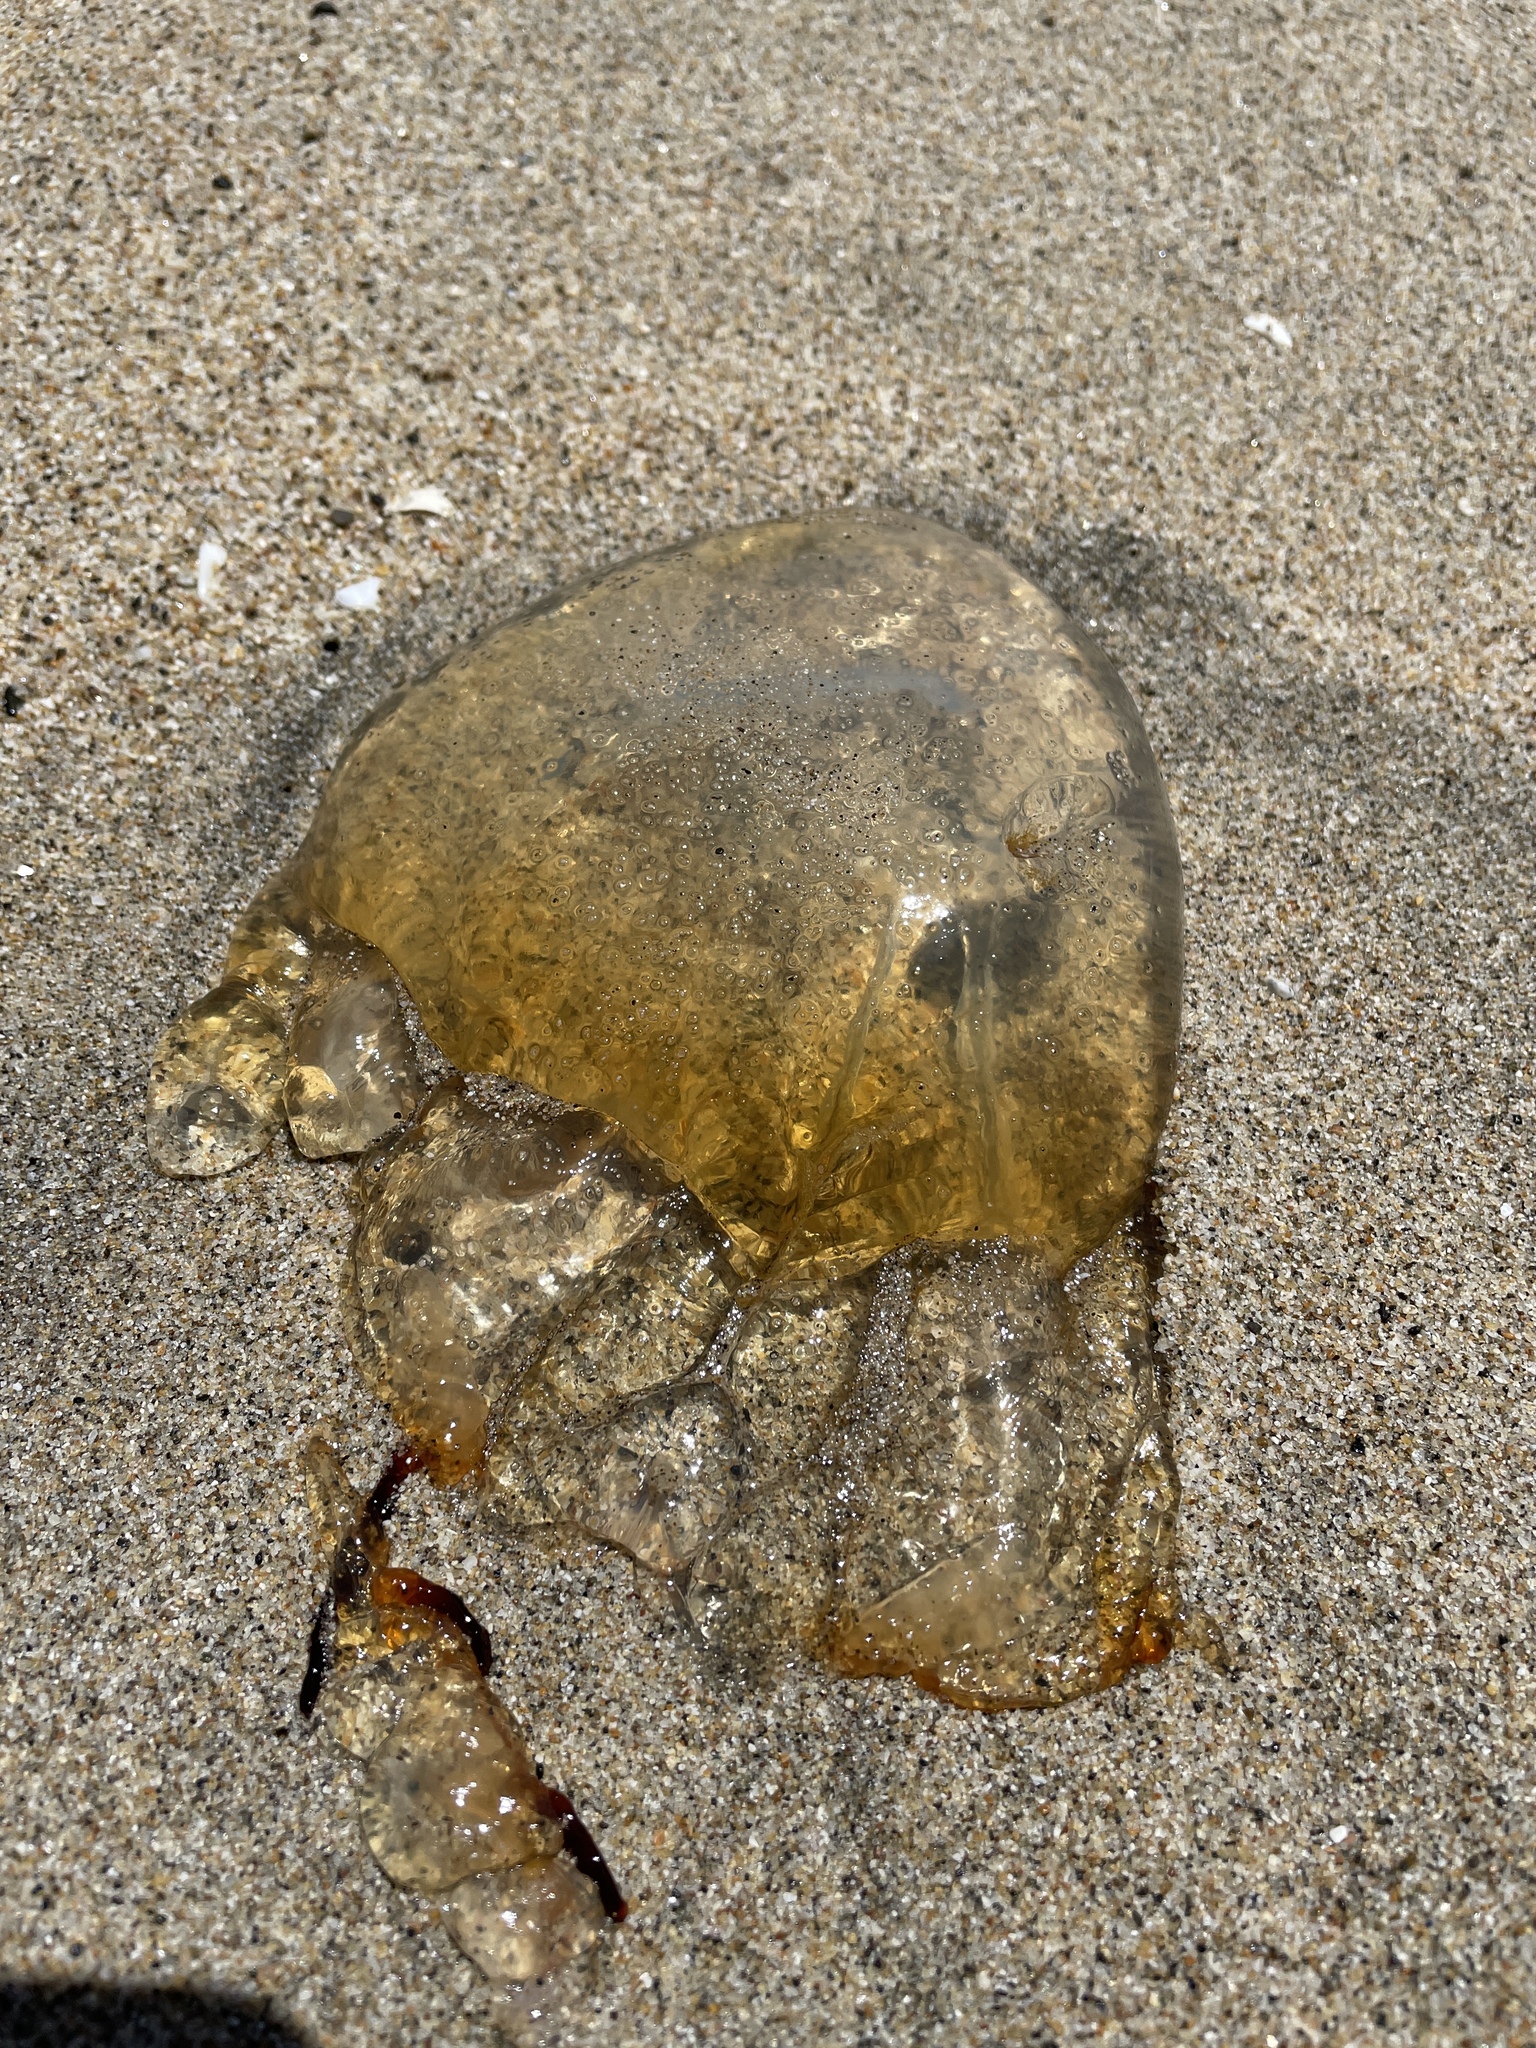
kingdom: Animalia
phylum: Cnidaria
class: Scyphozoa
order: Semaeostomeae
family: Pelagiidae
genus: Chrysaora
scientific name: Chrysaora fuscescens
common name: Sea nettle
